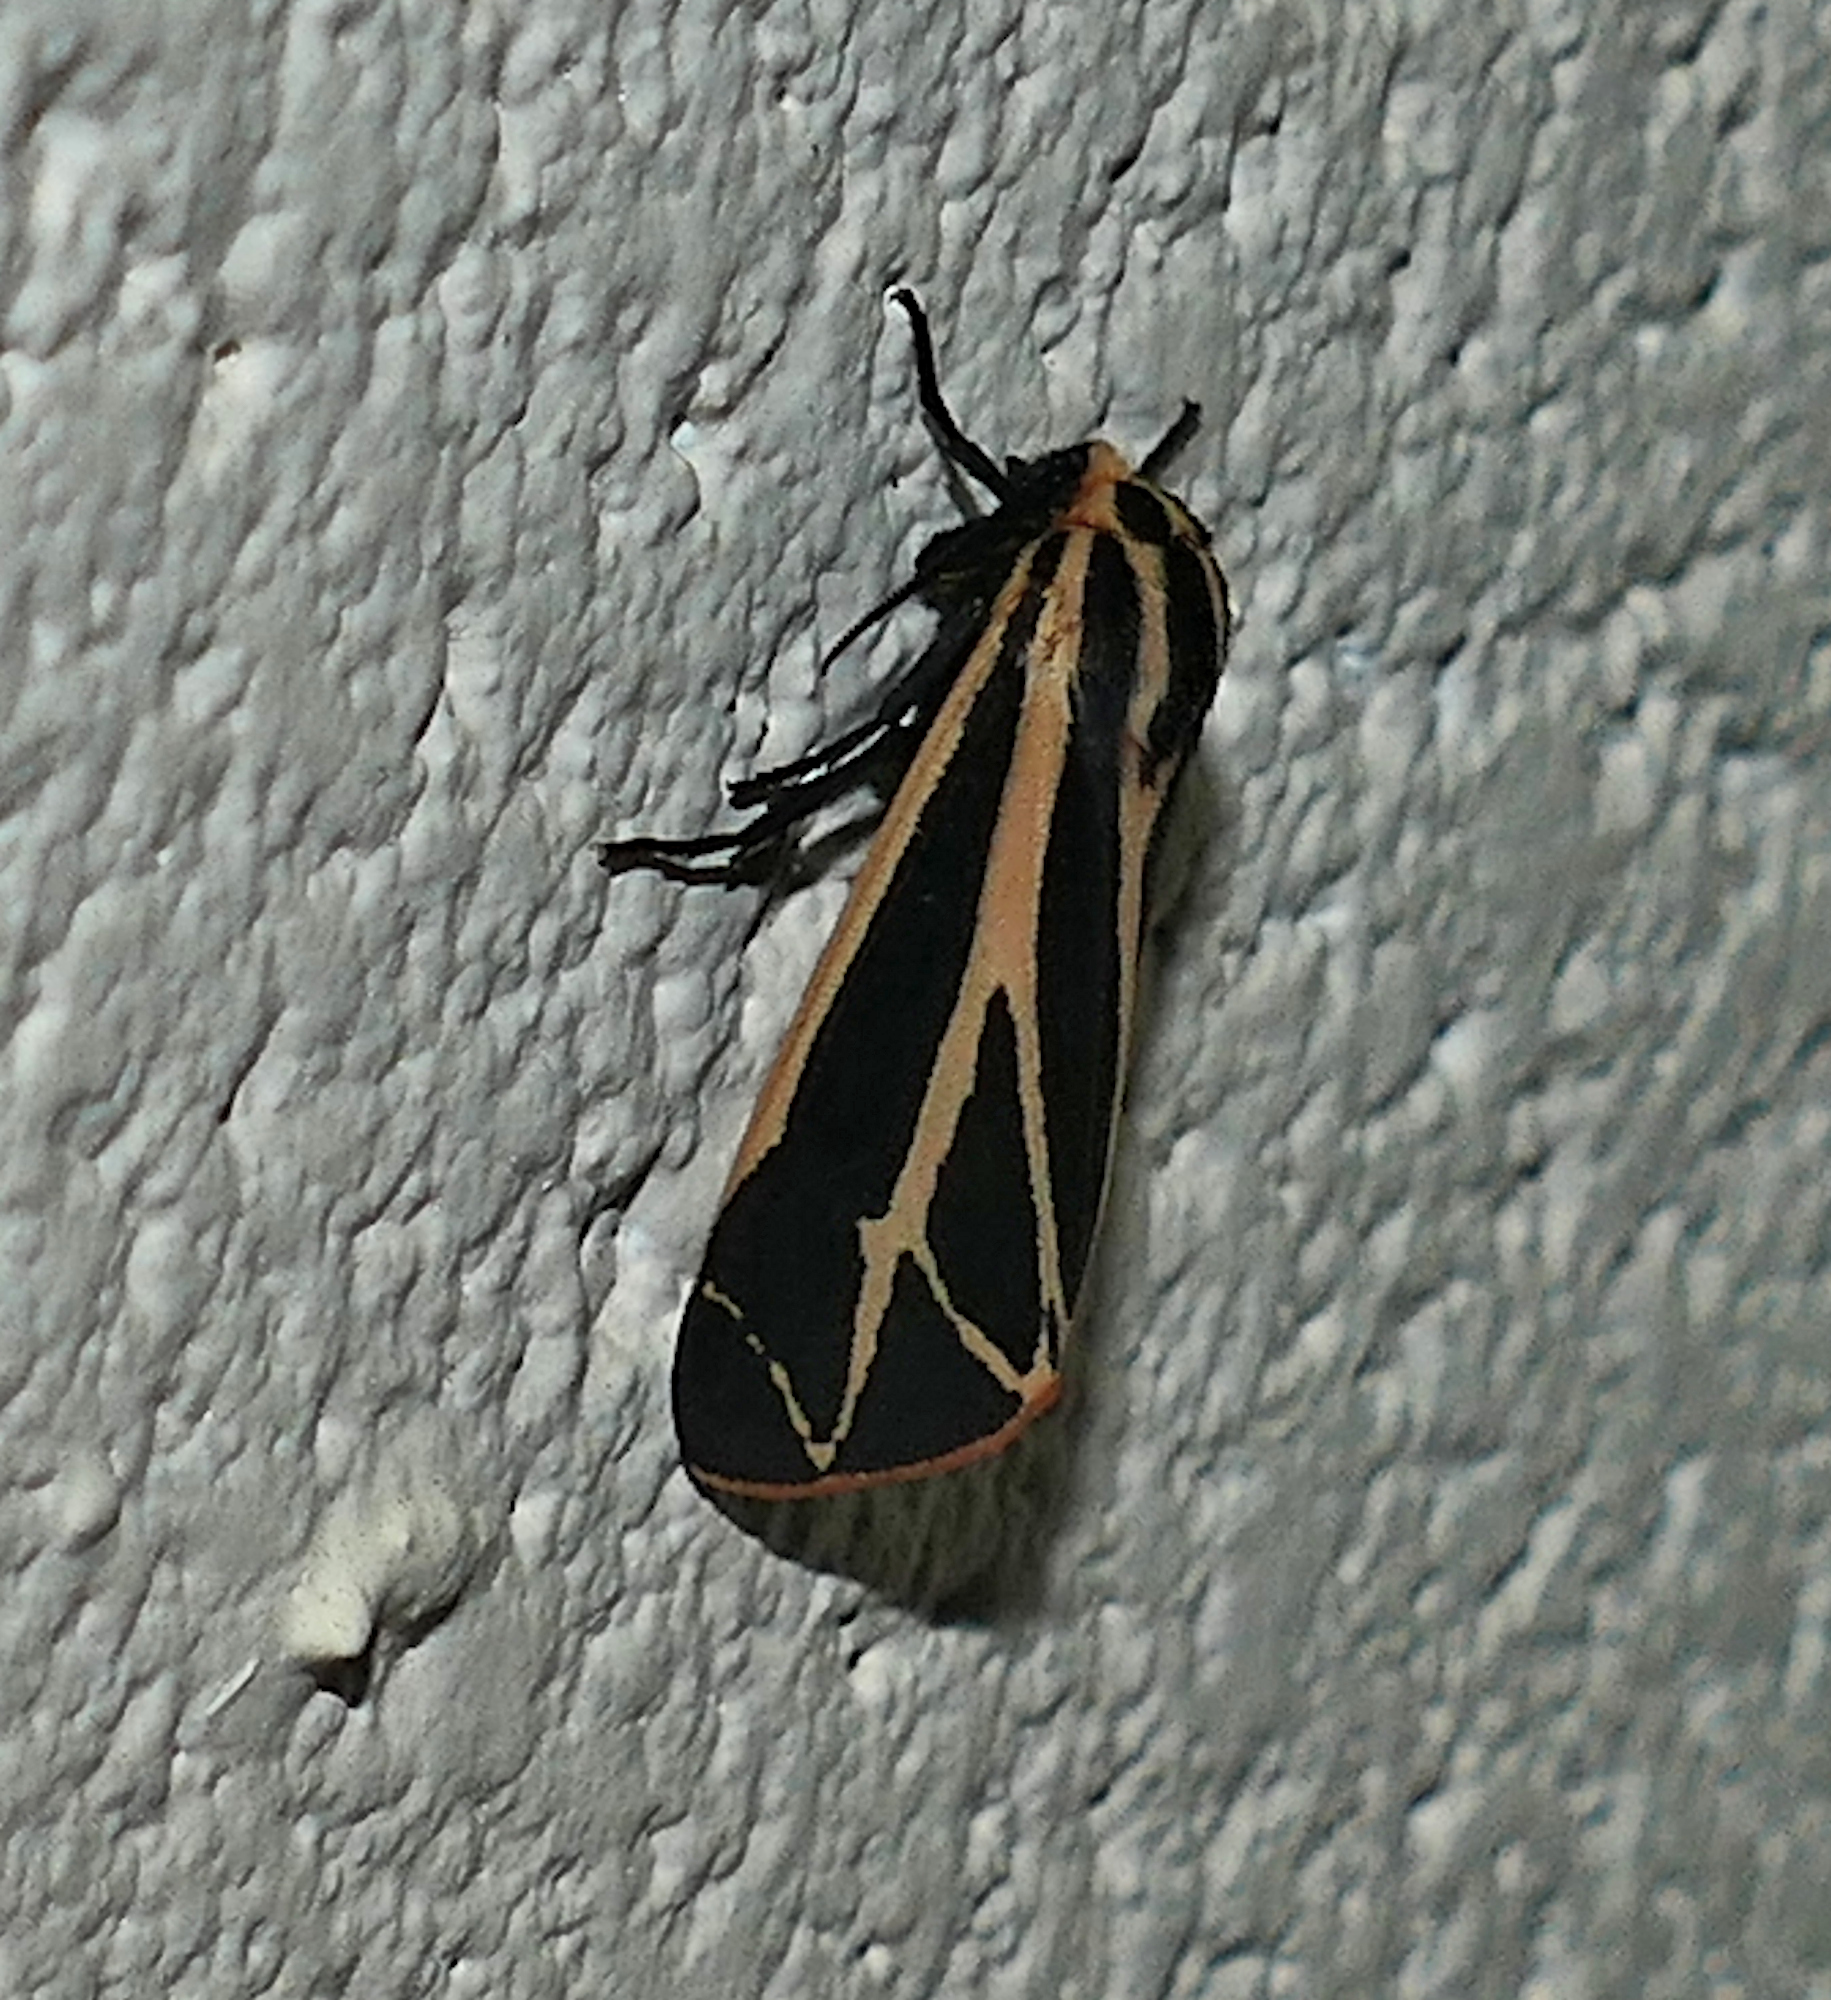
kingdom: Animalia
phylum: Arthropoda
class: Insecta
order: Lepidoptera
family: Erebidae
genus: Apantesis
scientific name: Apantesis phalerata
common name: Harnessed tiger moth
